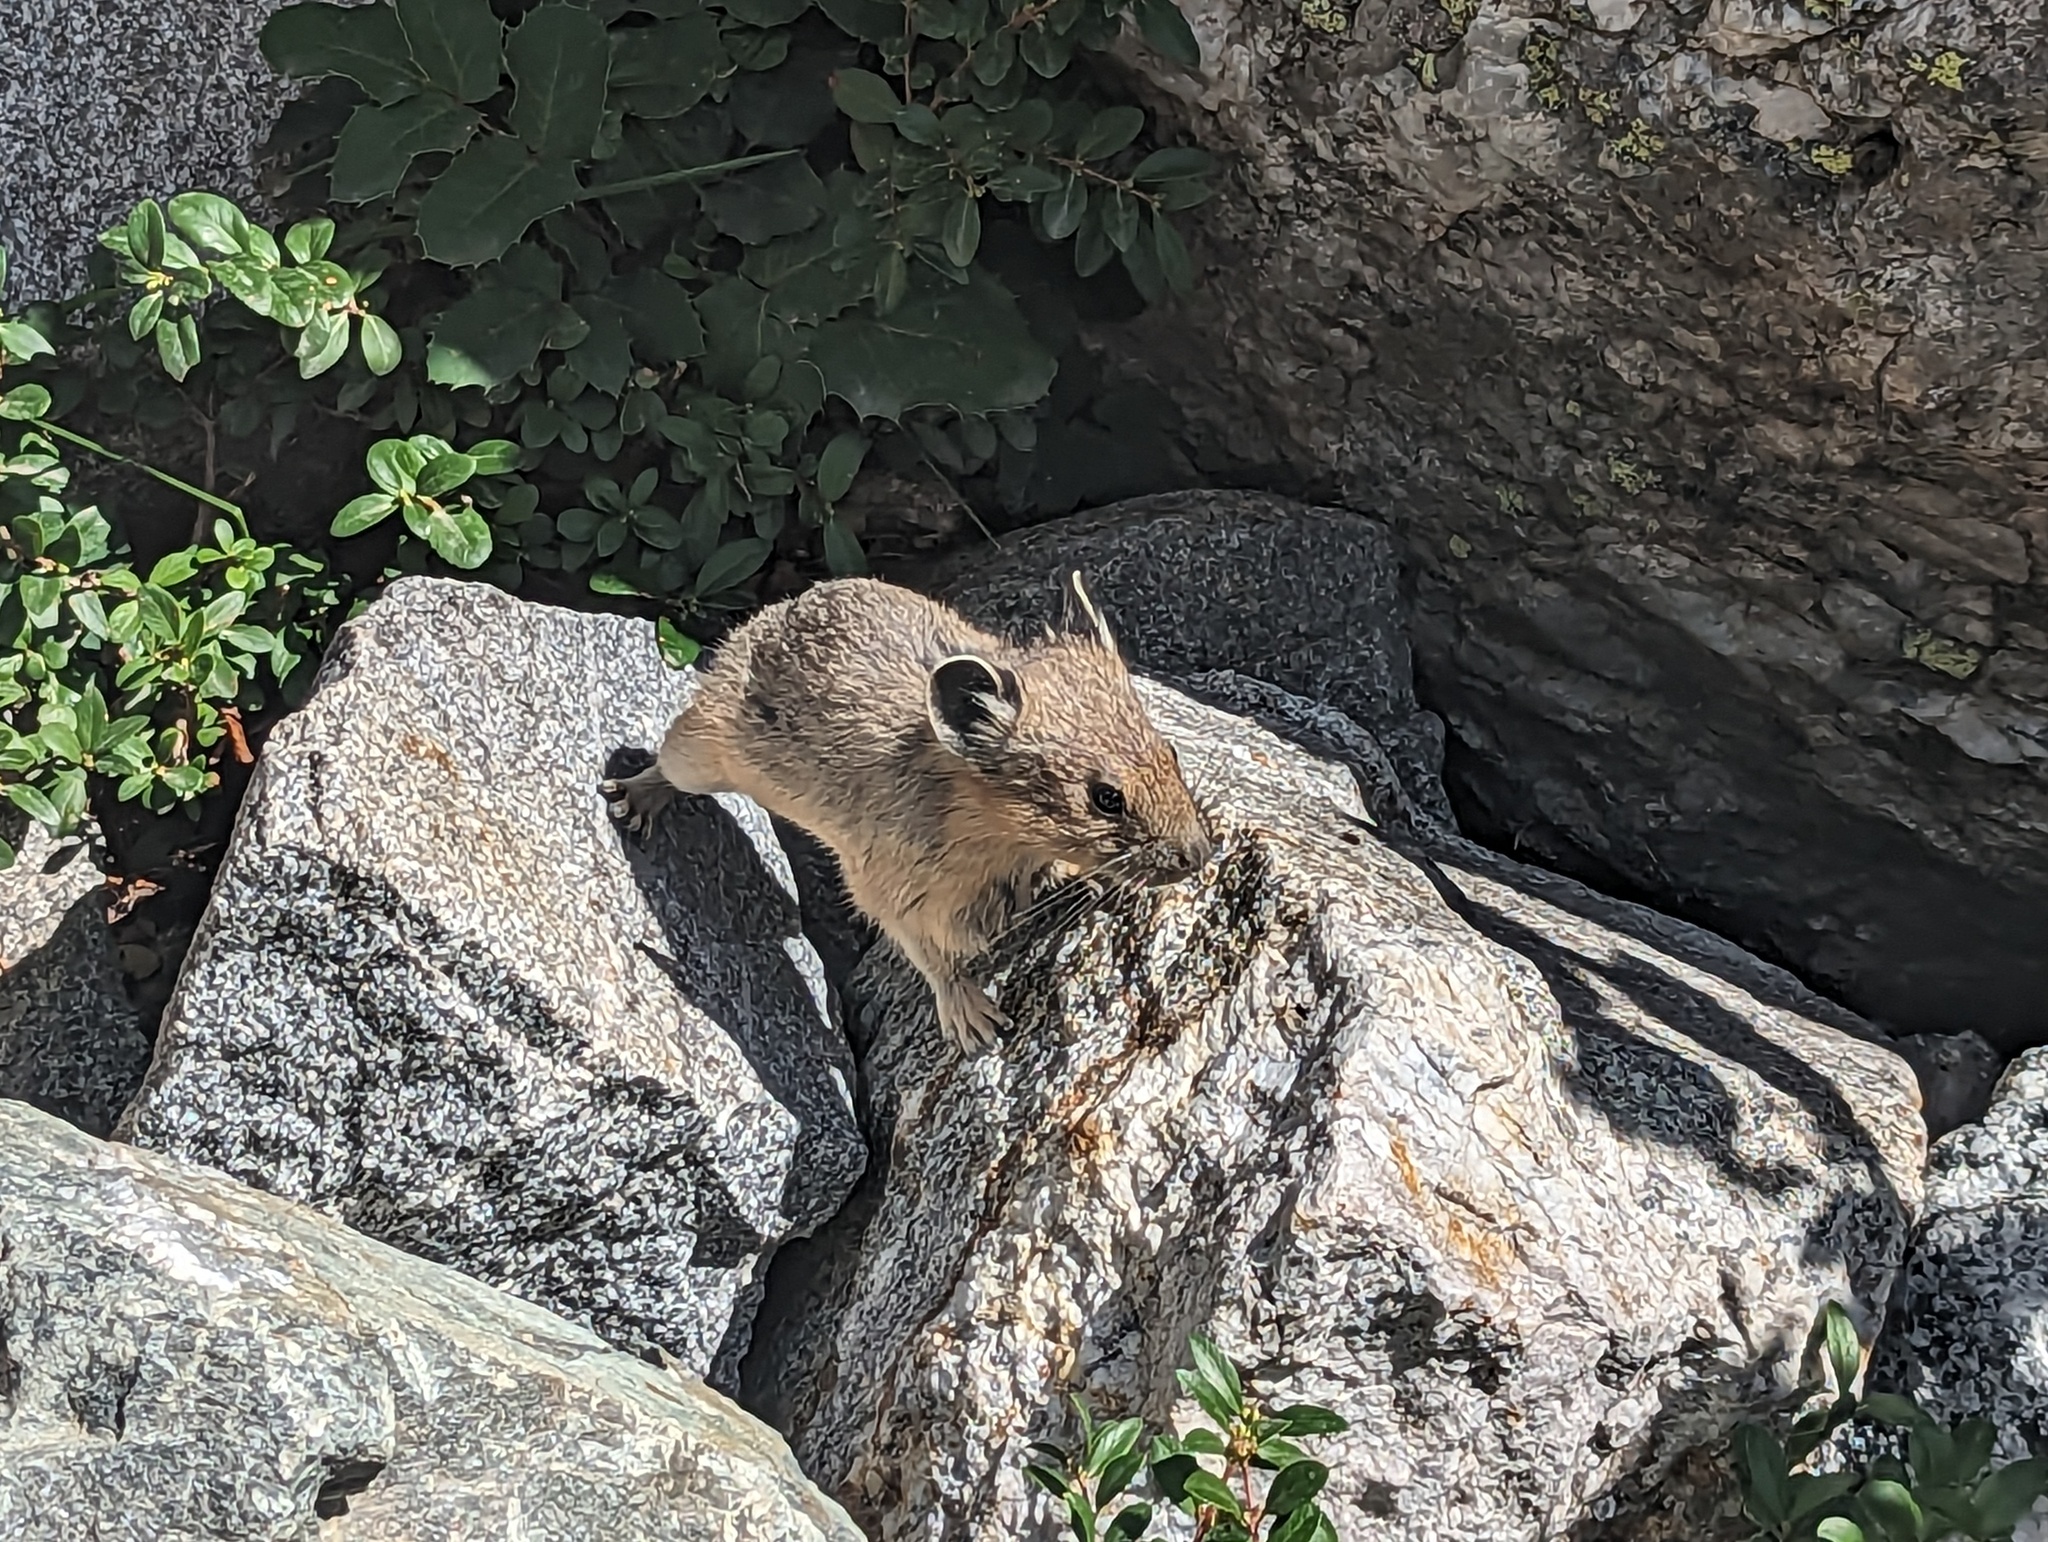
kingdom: Animalia
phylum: Chordata
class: Mammalia
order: Lagomorpha
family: Ochotonidae
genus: Ochotona
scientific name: Ochotona princeps
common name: American pika
